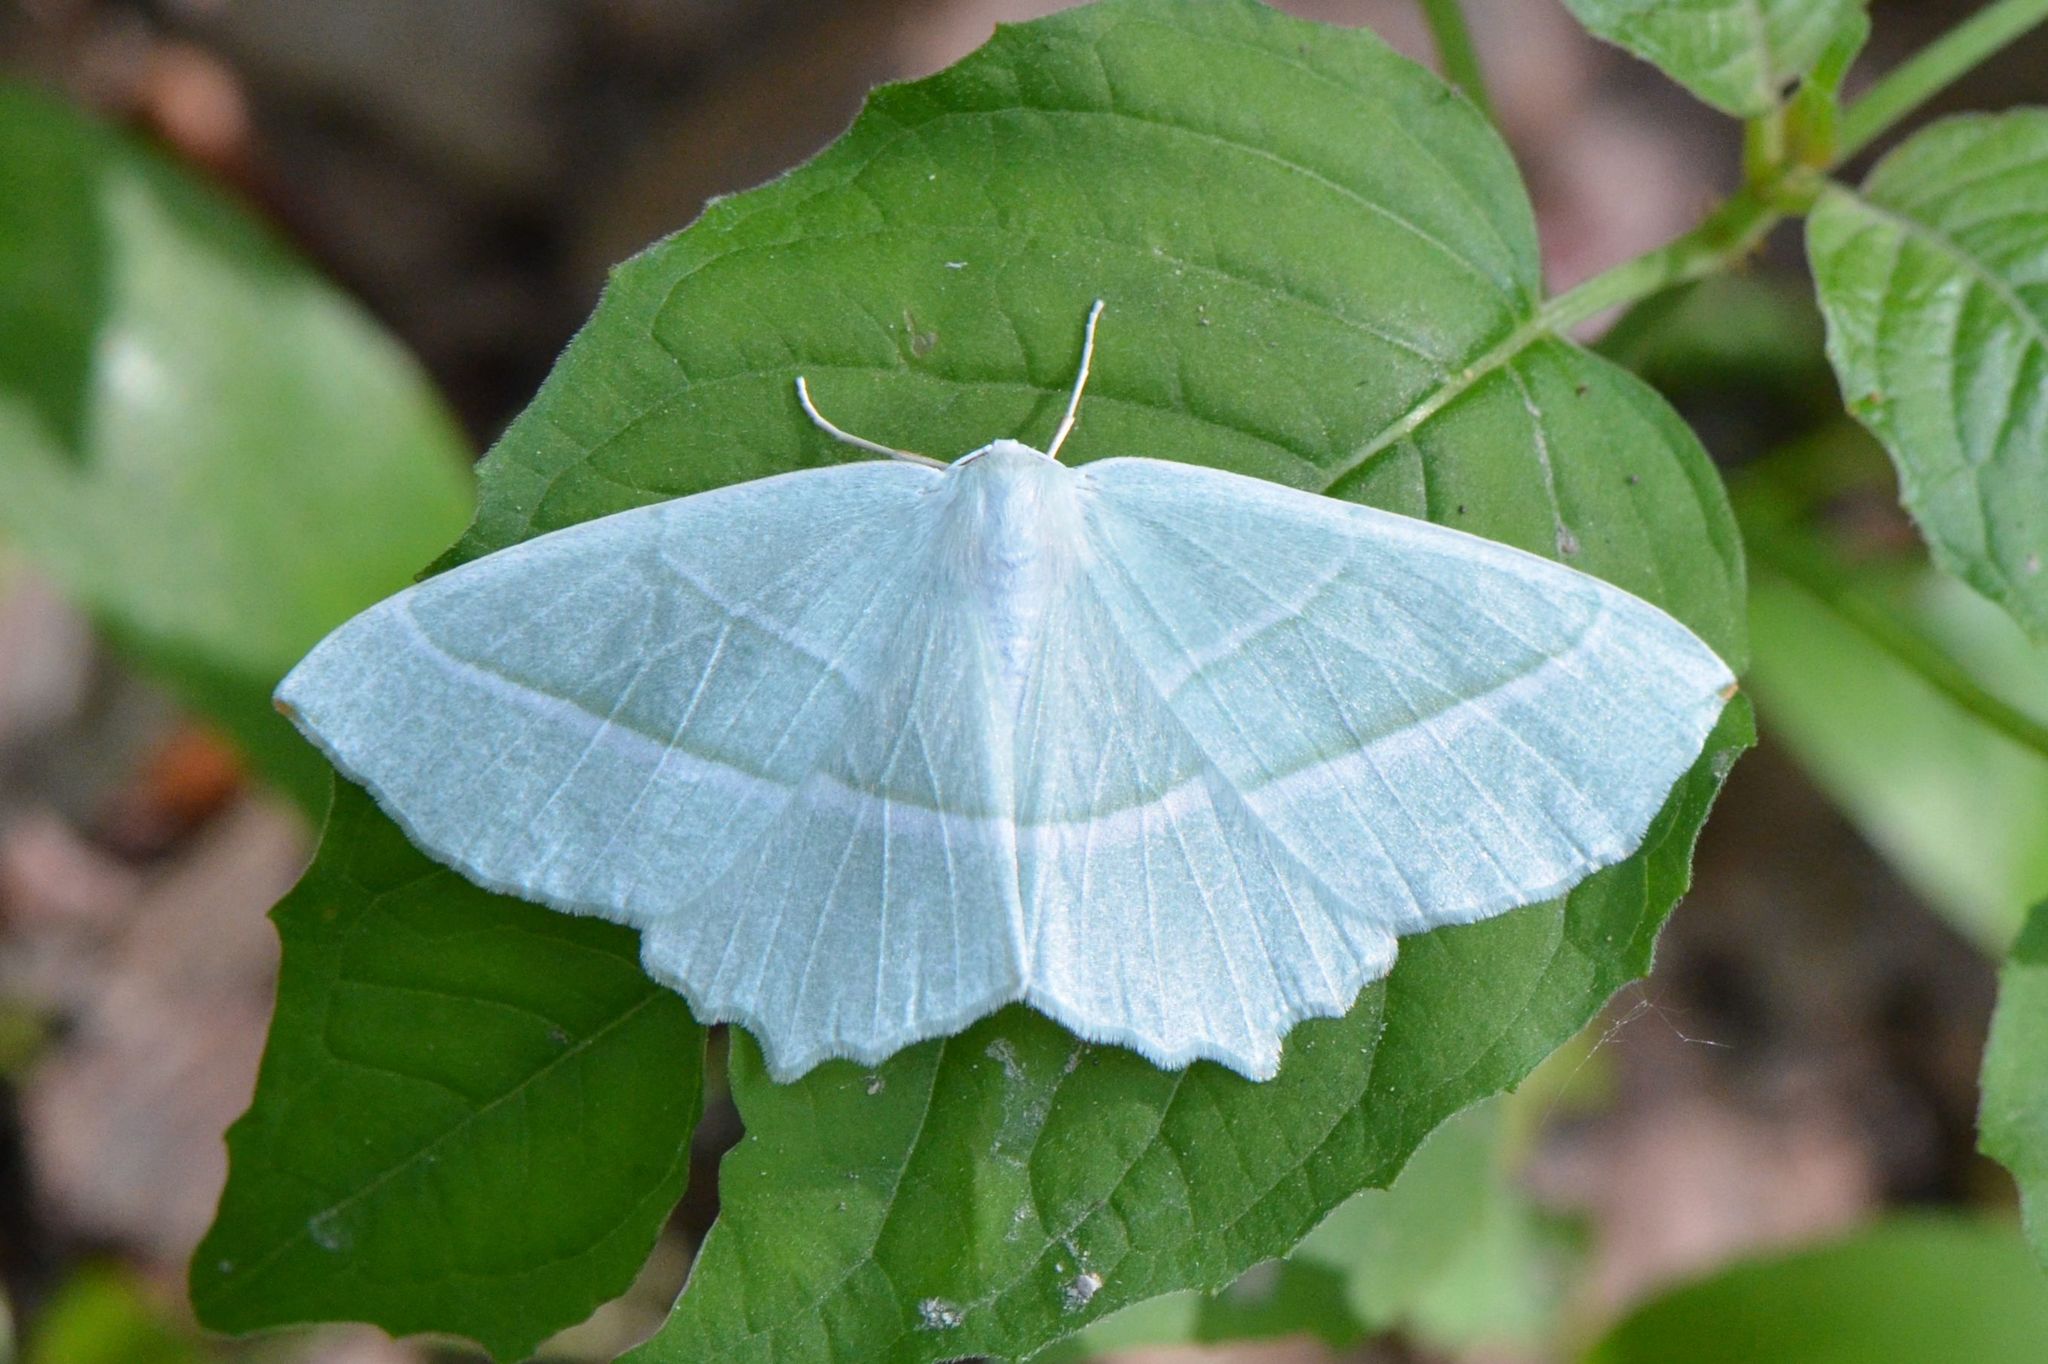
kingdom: Animalia
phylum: Arthropoda
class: Insecta
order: Lepidoptera
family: Geometridae
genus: Campaea
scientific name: Campaea margaritaria
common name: Light emerald
